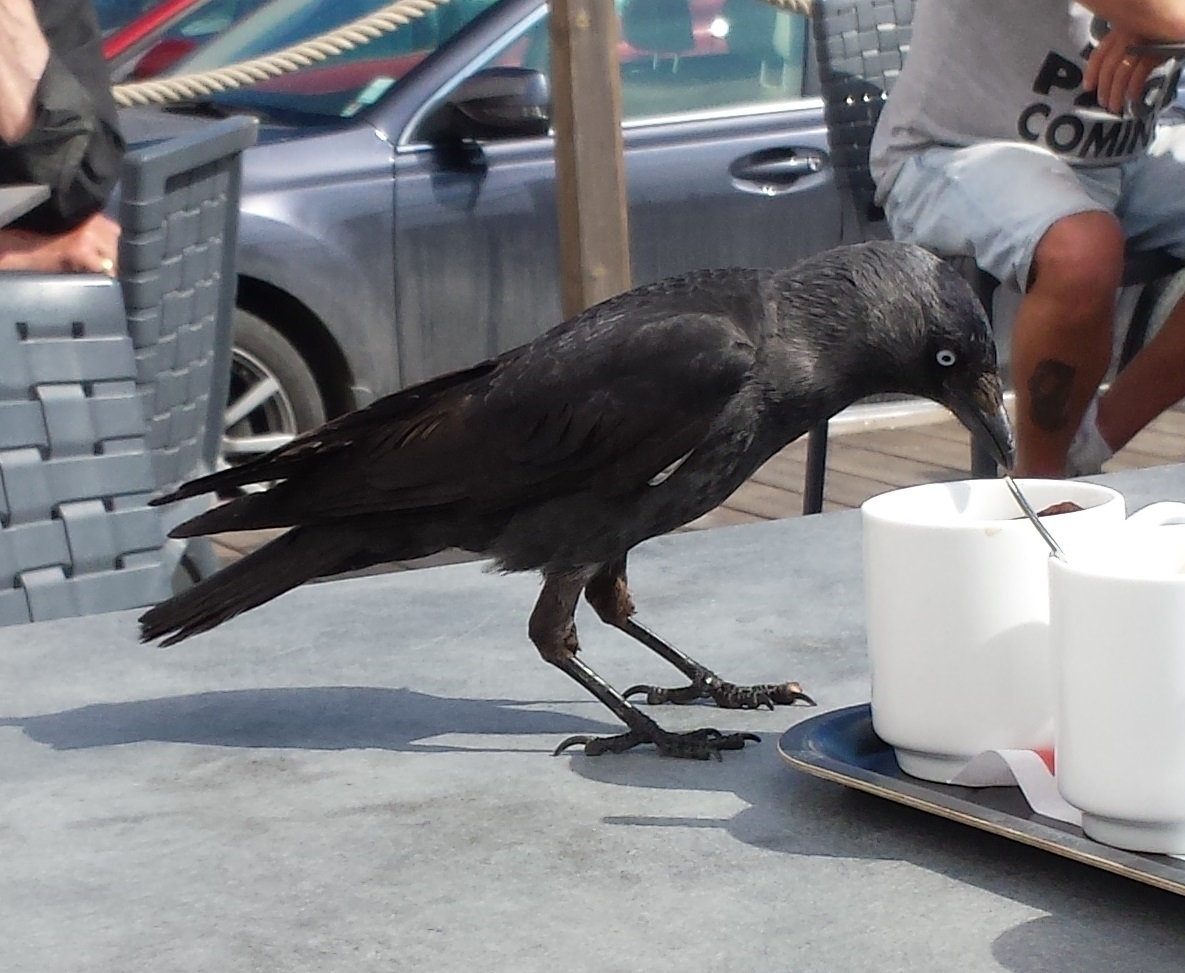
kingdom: Animalia
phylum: Chordata
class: Aves
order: Passeriformes
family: Corvidae
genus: Coloeus
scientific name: Coloeus monedula
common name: Western jackdaw
